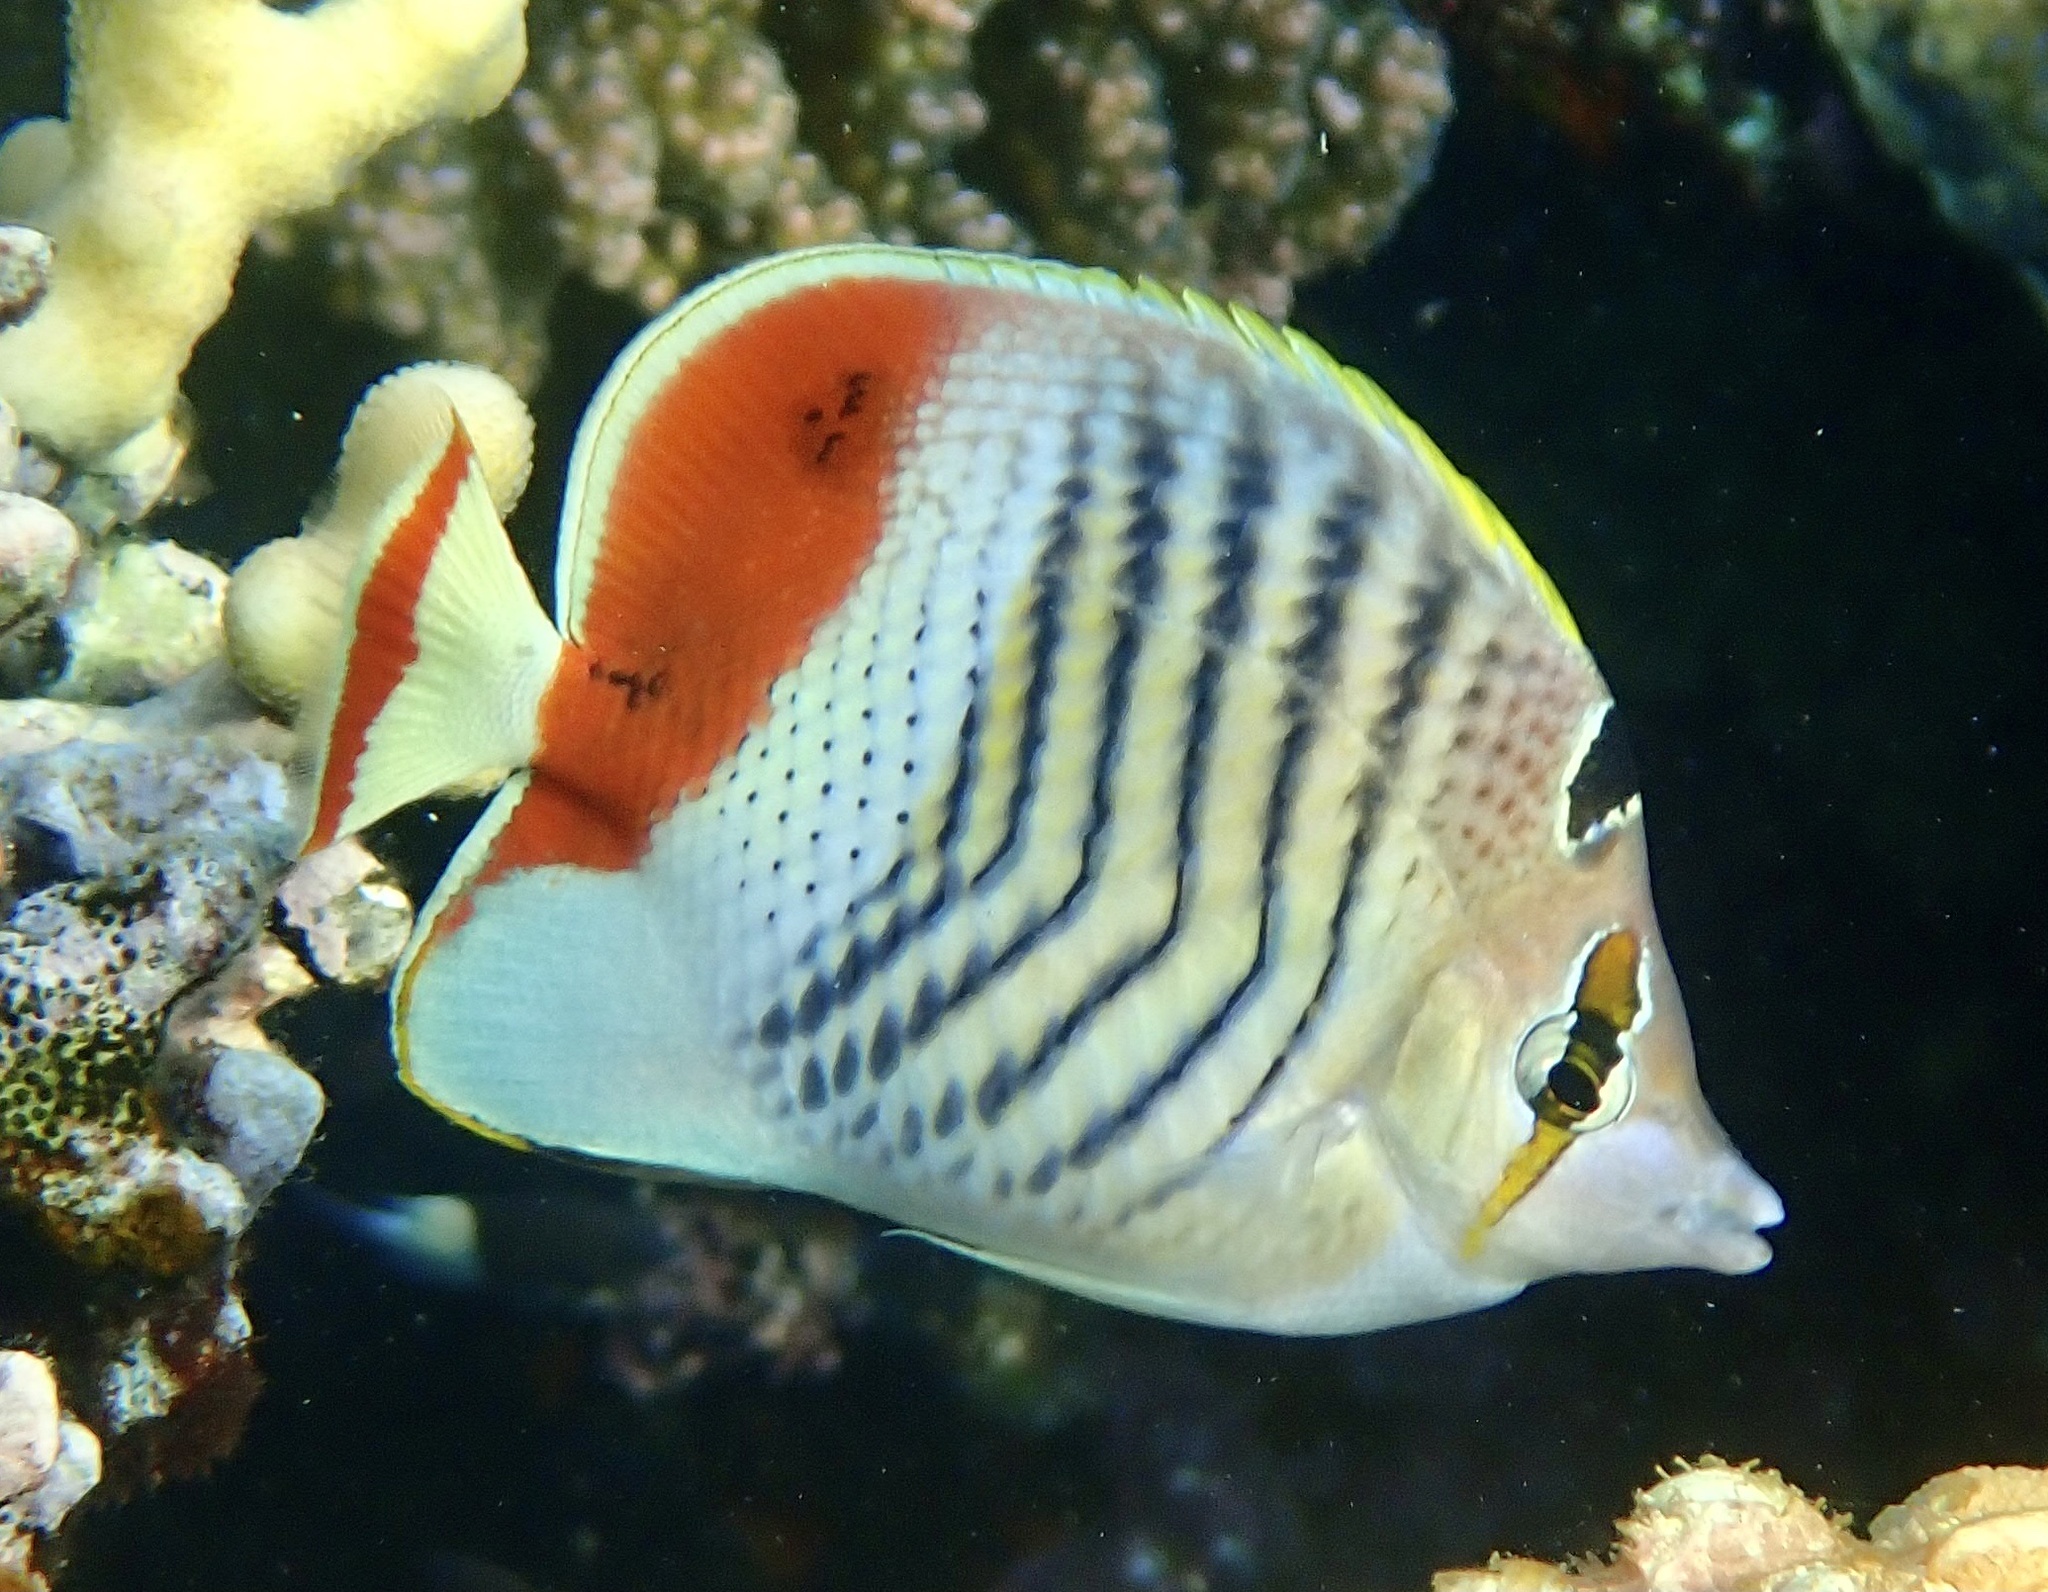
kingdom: Animalia
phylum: Chordata
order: Perciformes
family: Chaetodontidae
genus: Chaetodon
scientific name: Chaetodon paucifasciatus
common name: Crown butterflyfish
